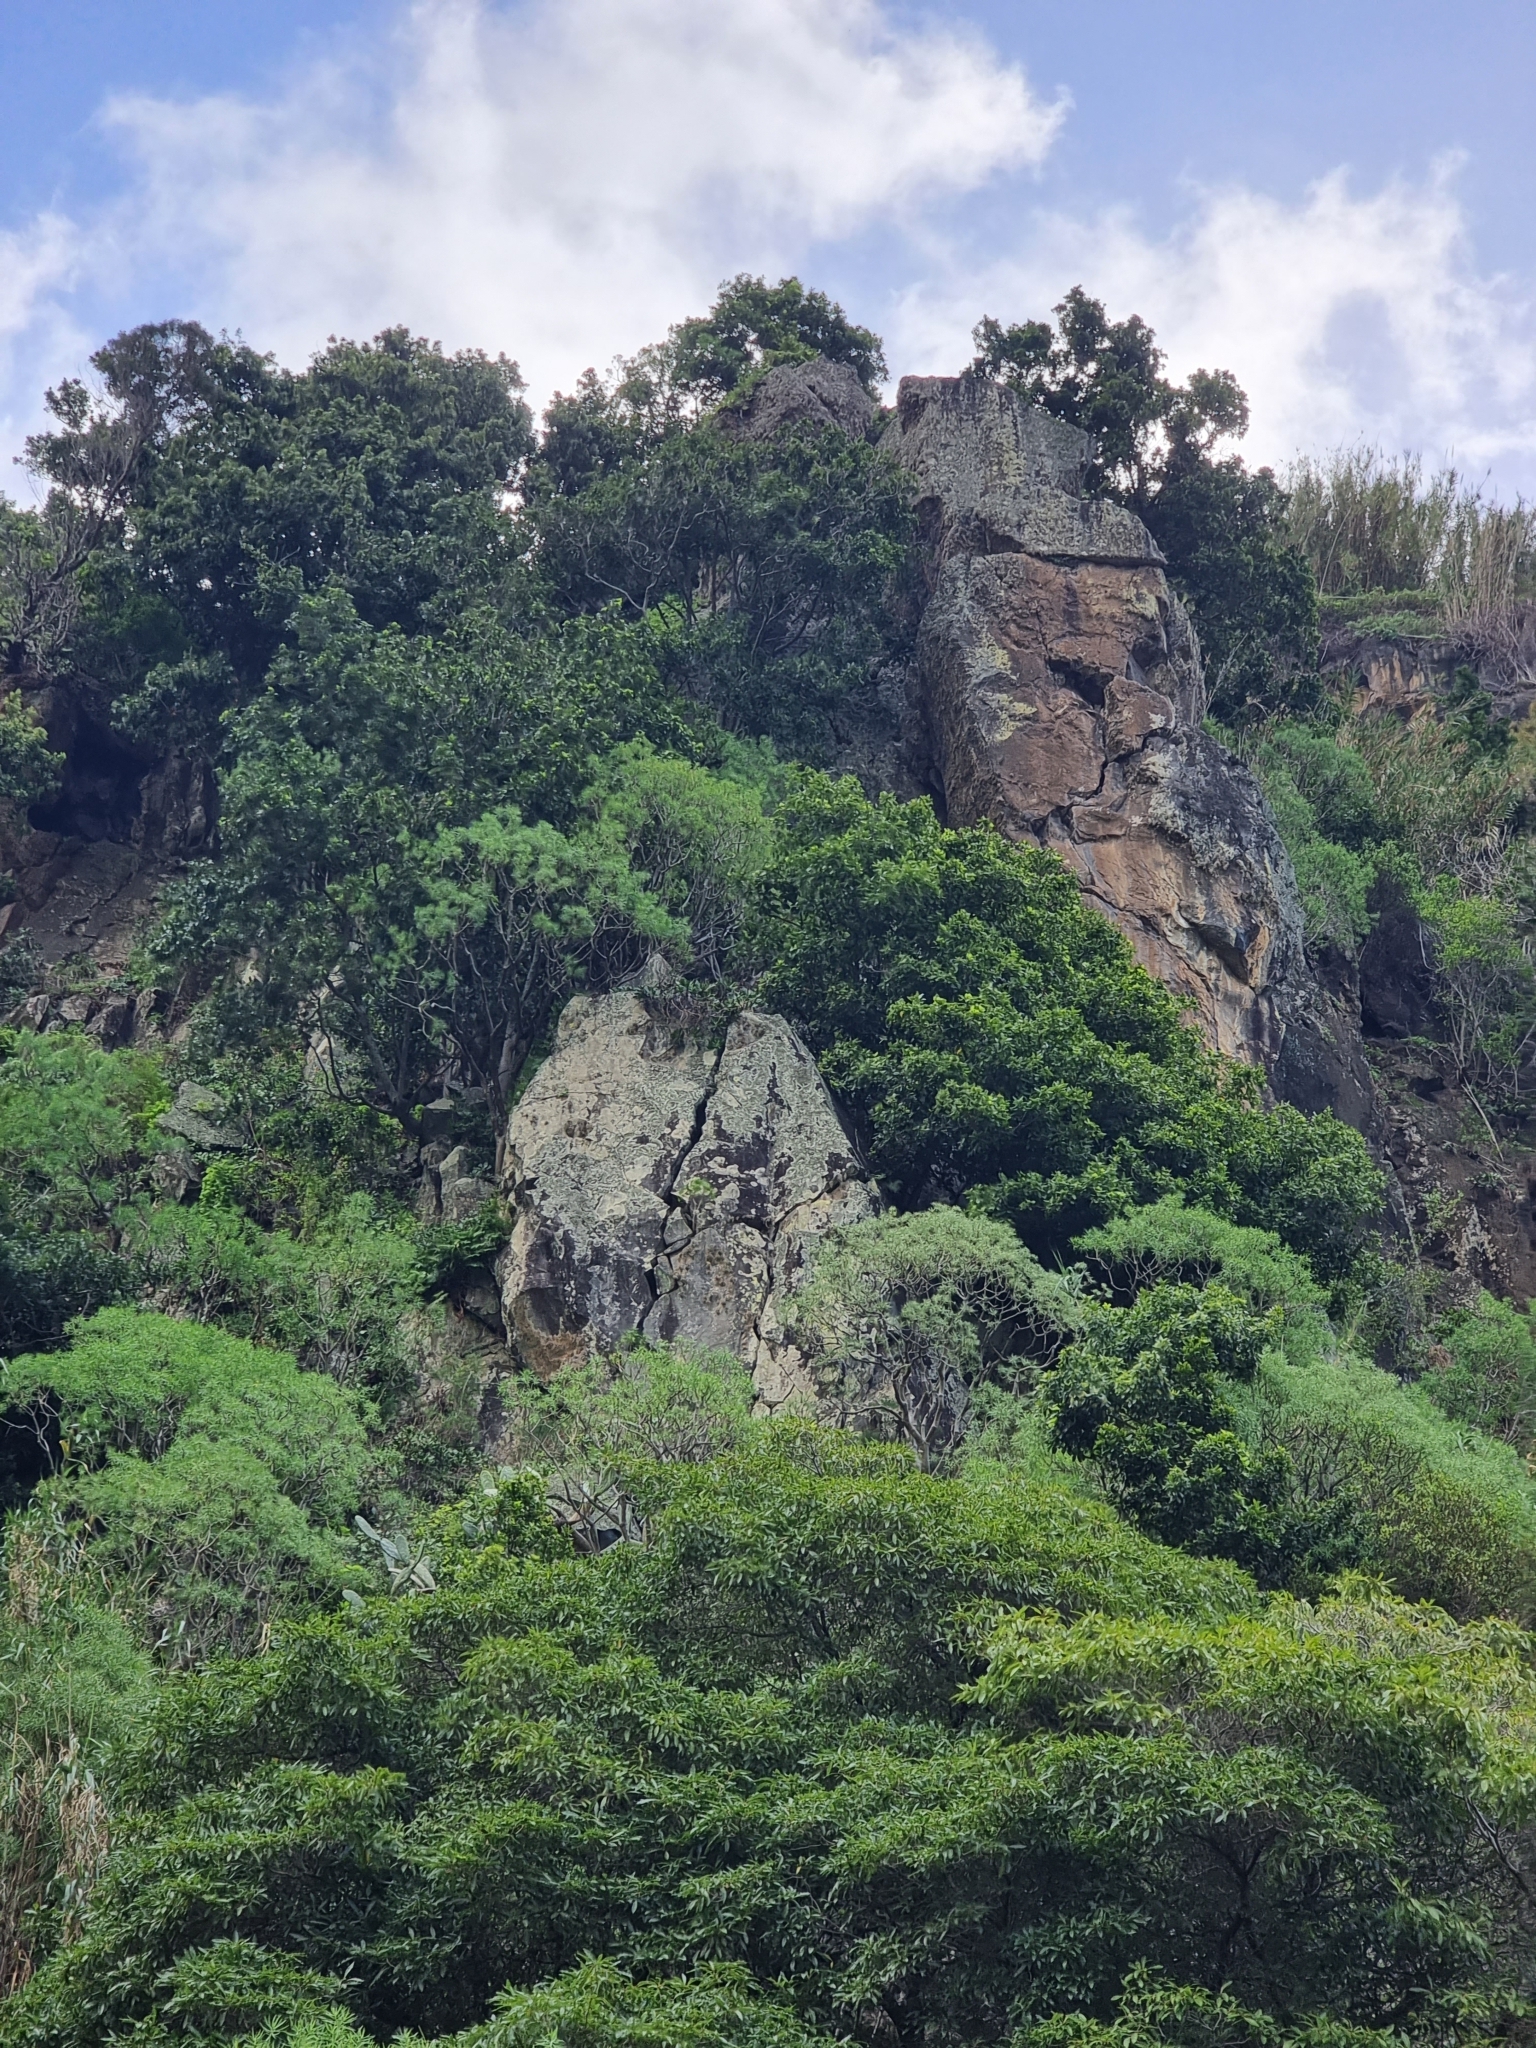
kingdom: Plantae
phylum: Tracheophyta
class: Magnoliopsida
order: Malpighiales
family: Euphorbiaceae
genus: Euphorbia
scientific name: Euphorbia piscatoria
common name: Fish-stunning spurge
